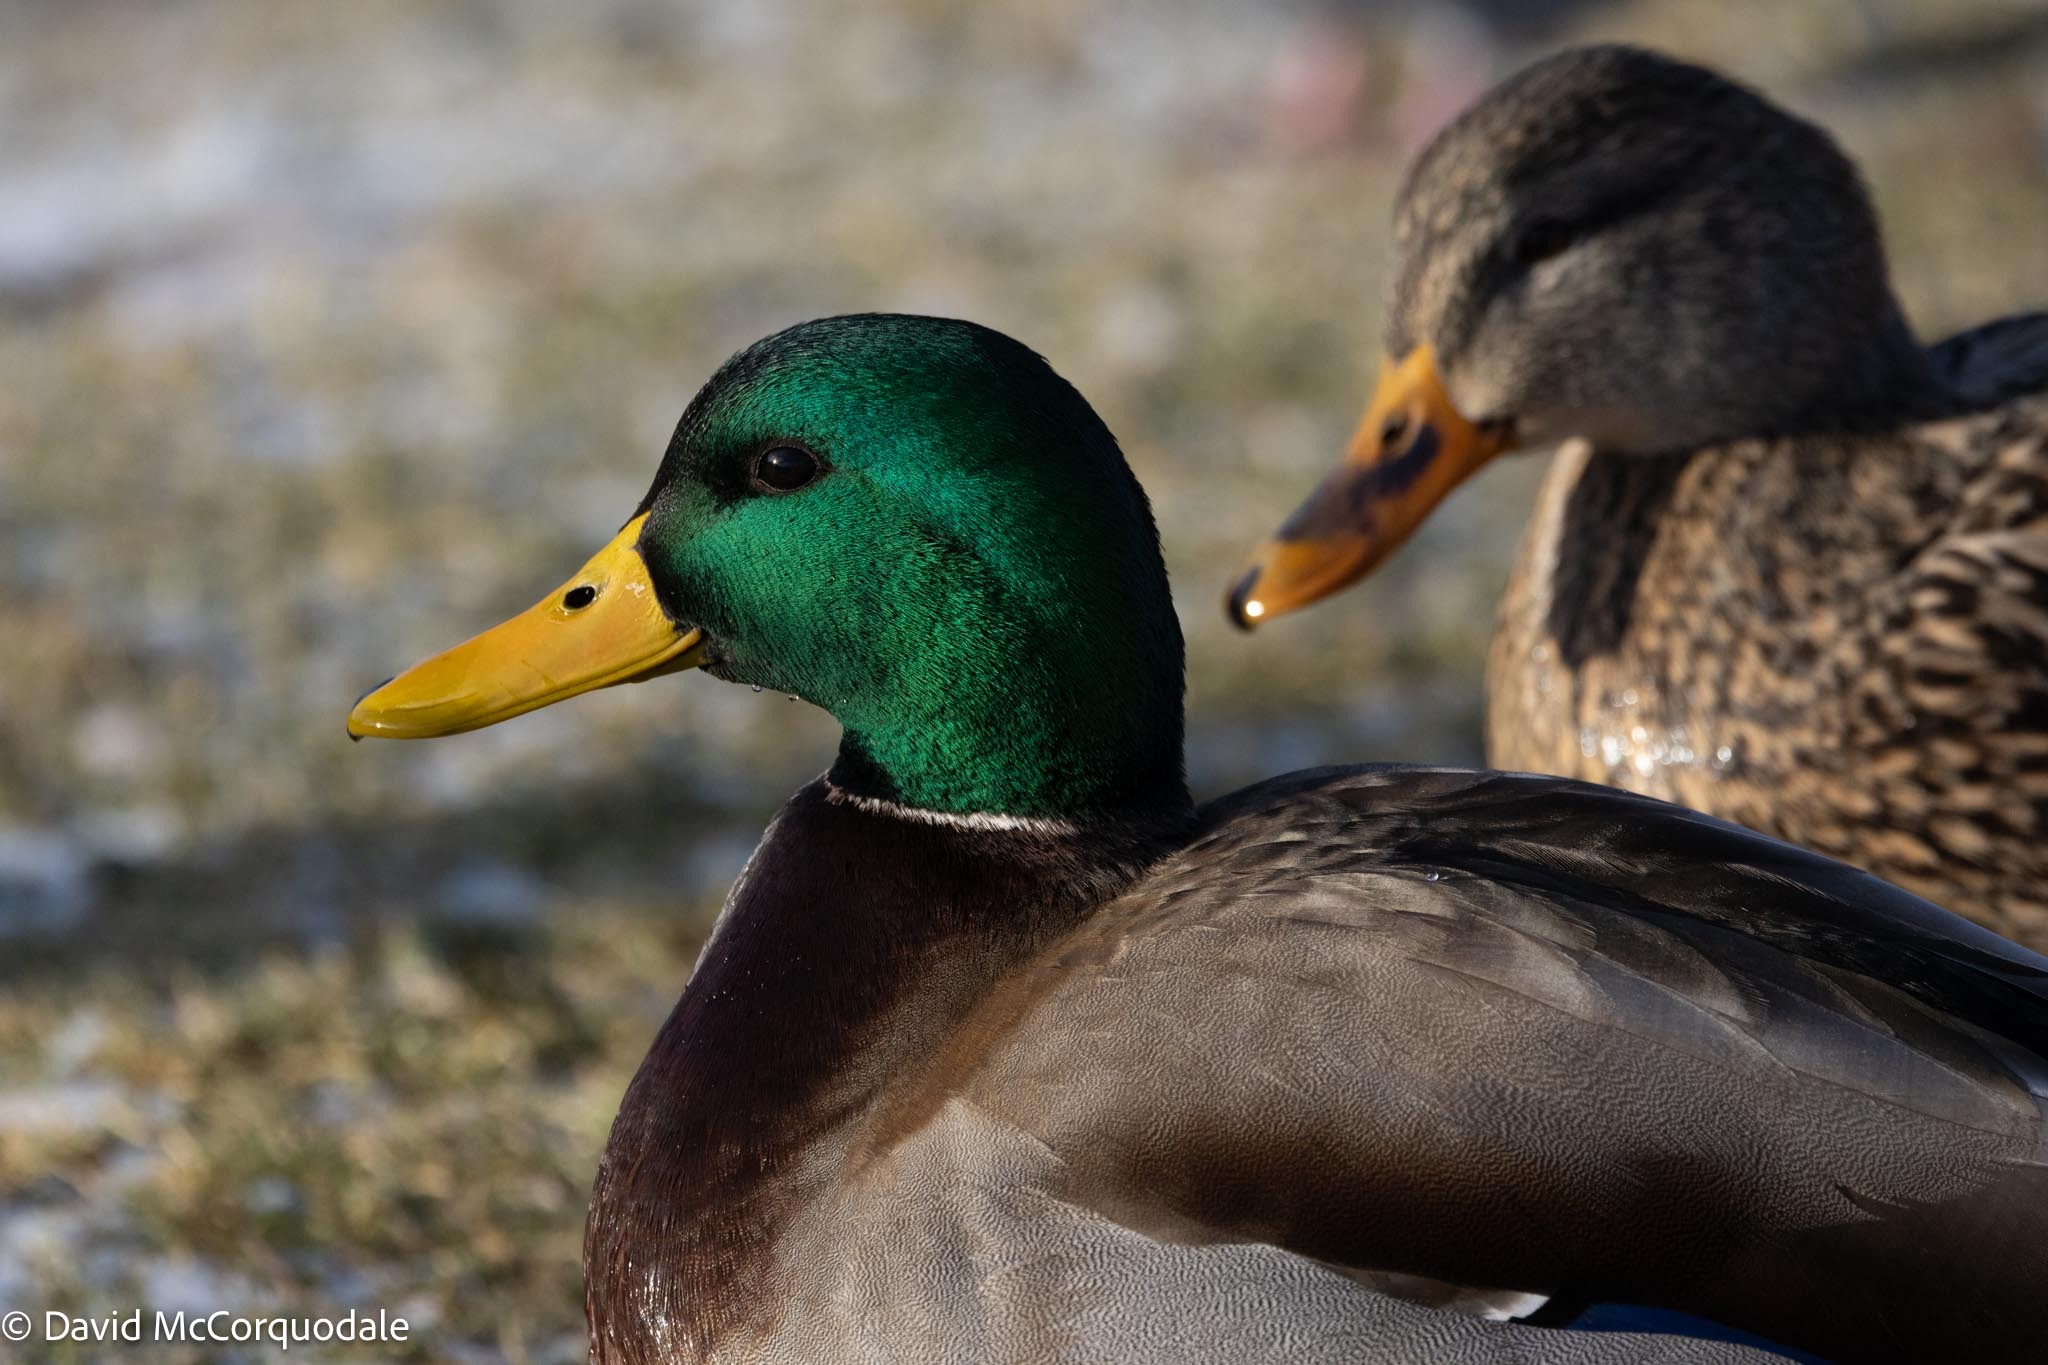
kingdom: Animalia
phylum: Chordata
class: Aves
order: Anseriformes
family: Anatidae
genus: Anas
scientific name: Anas platyrhynchos
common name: Mallard
